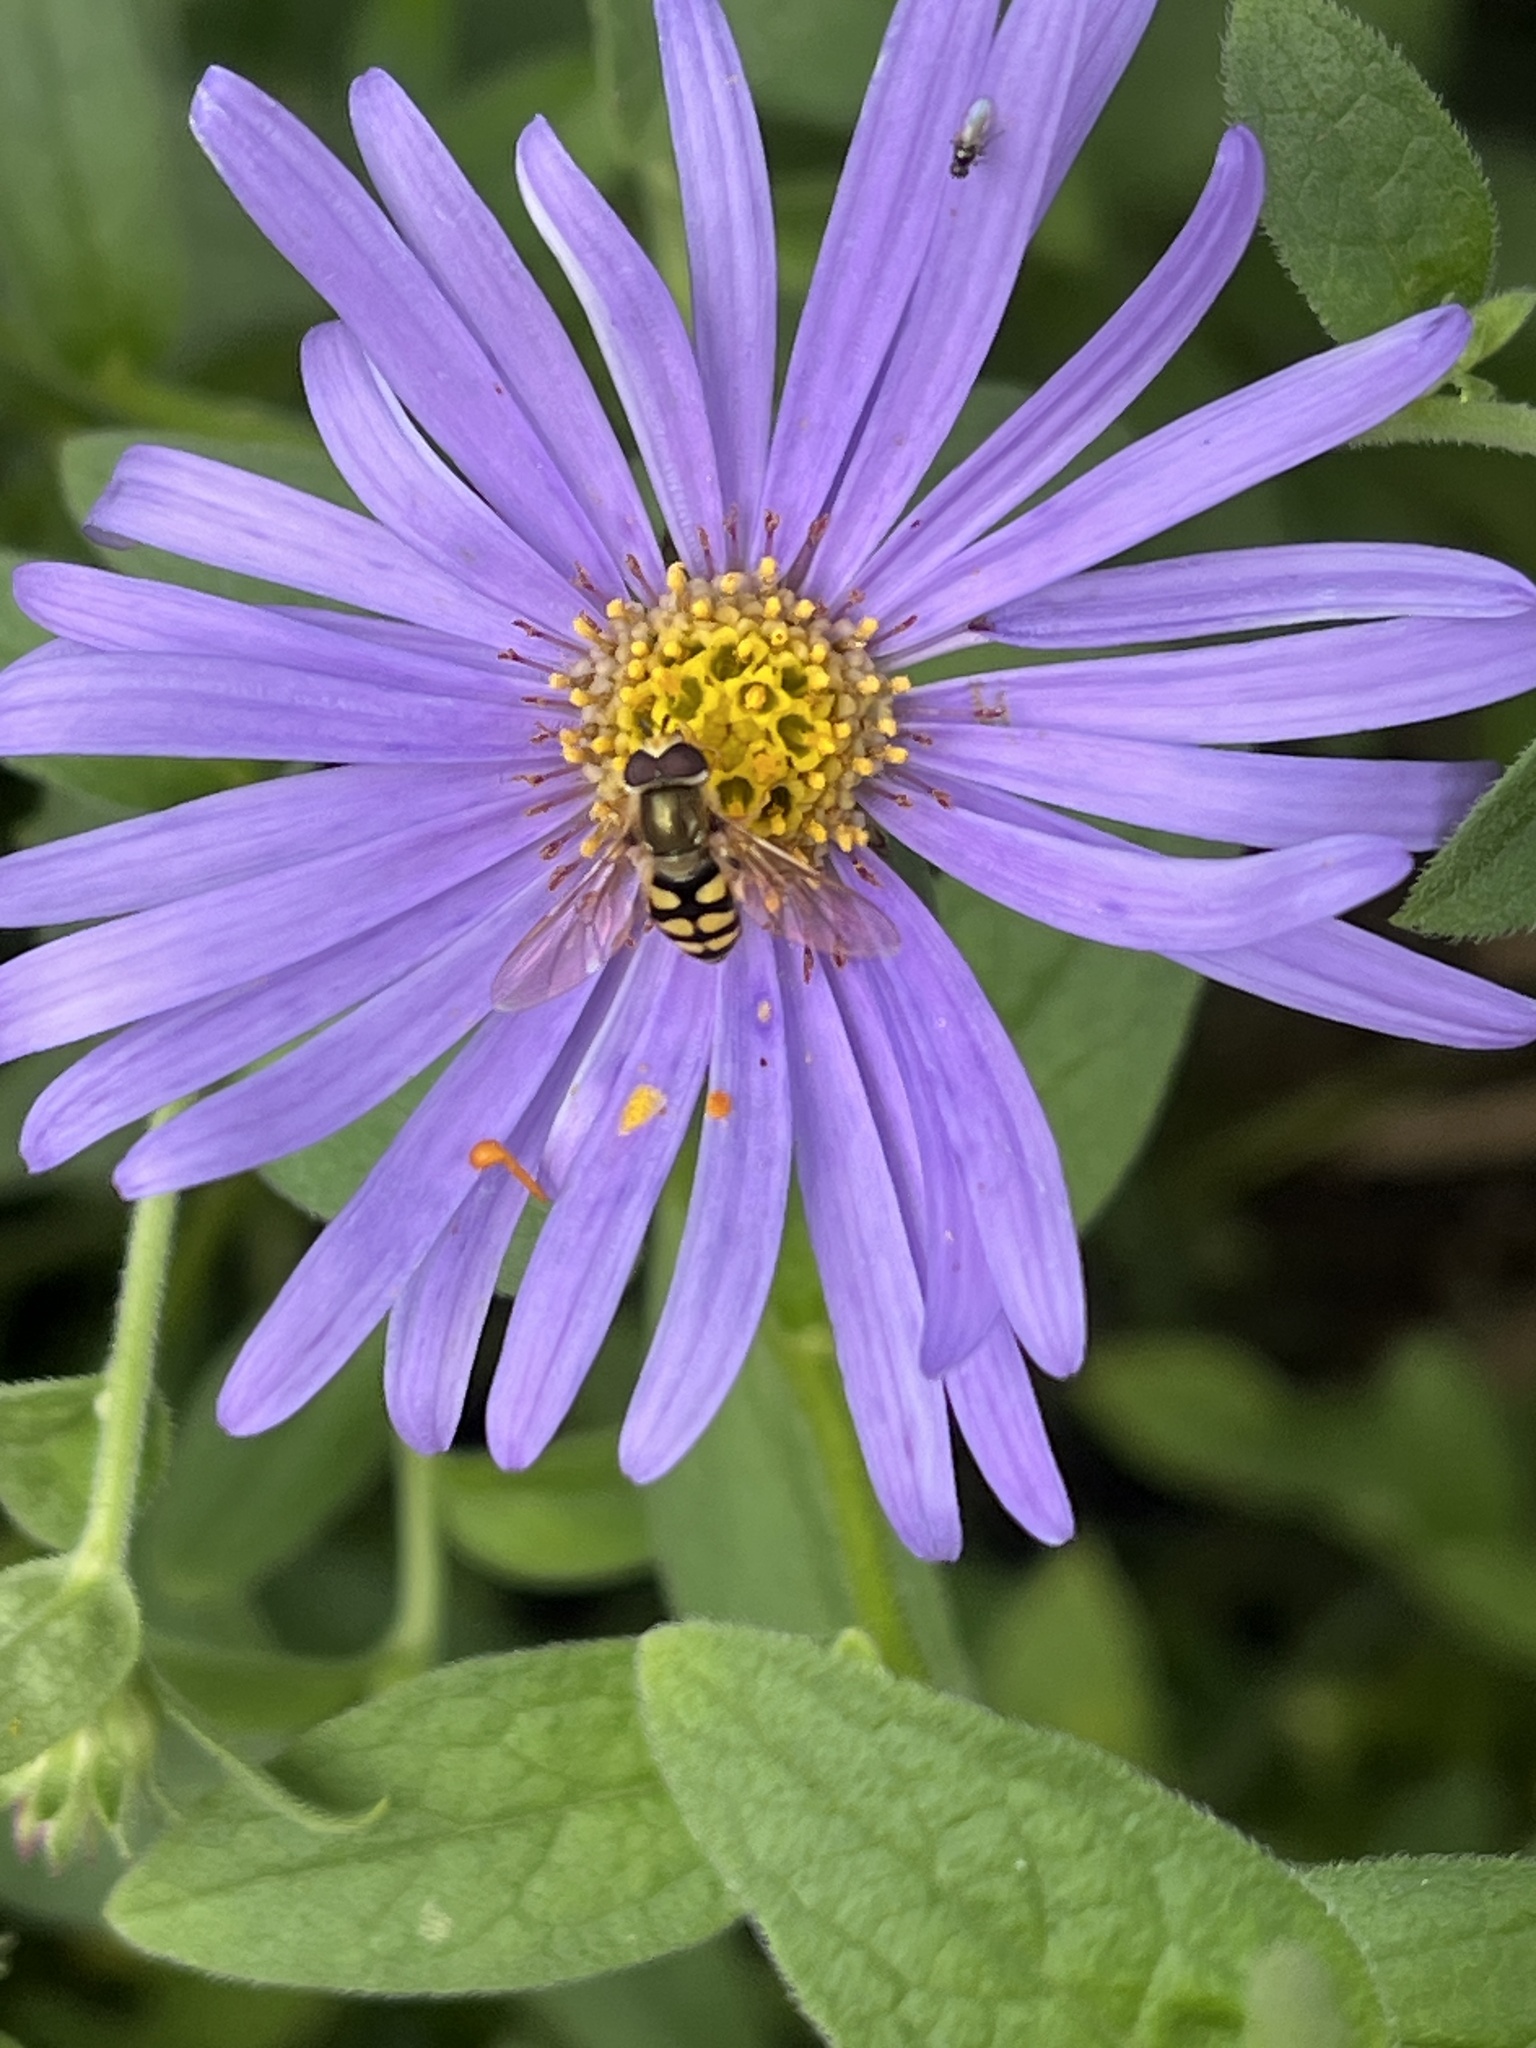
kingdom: Animalia
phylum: Arthropoda
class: Insecta
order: Diptera
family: Syrphidae
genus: Eupeodes
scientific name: Eupeodes corollae
